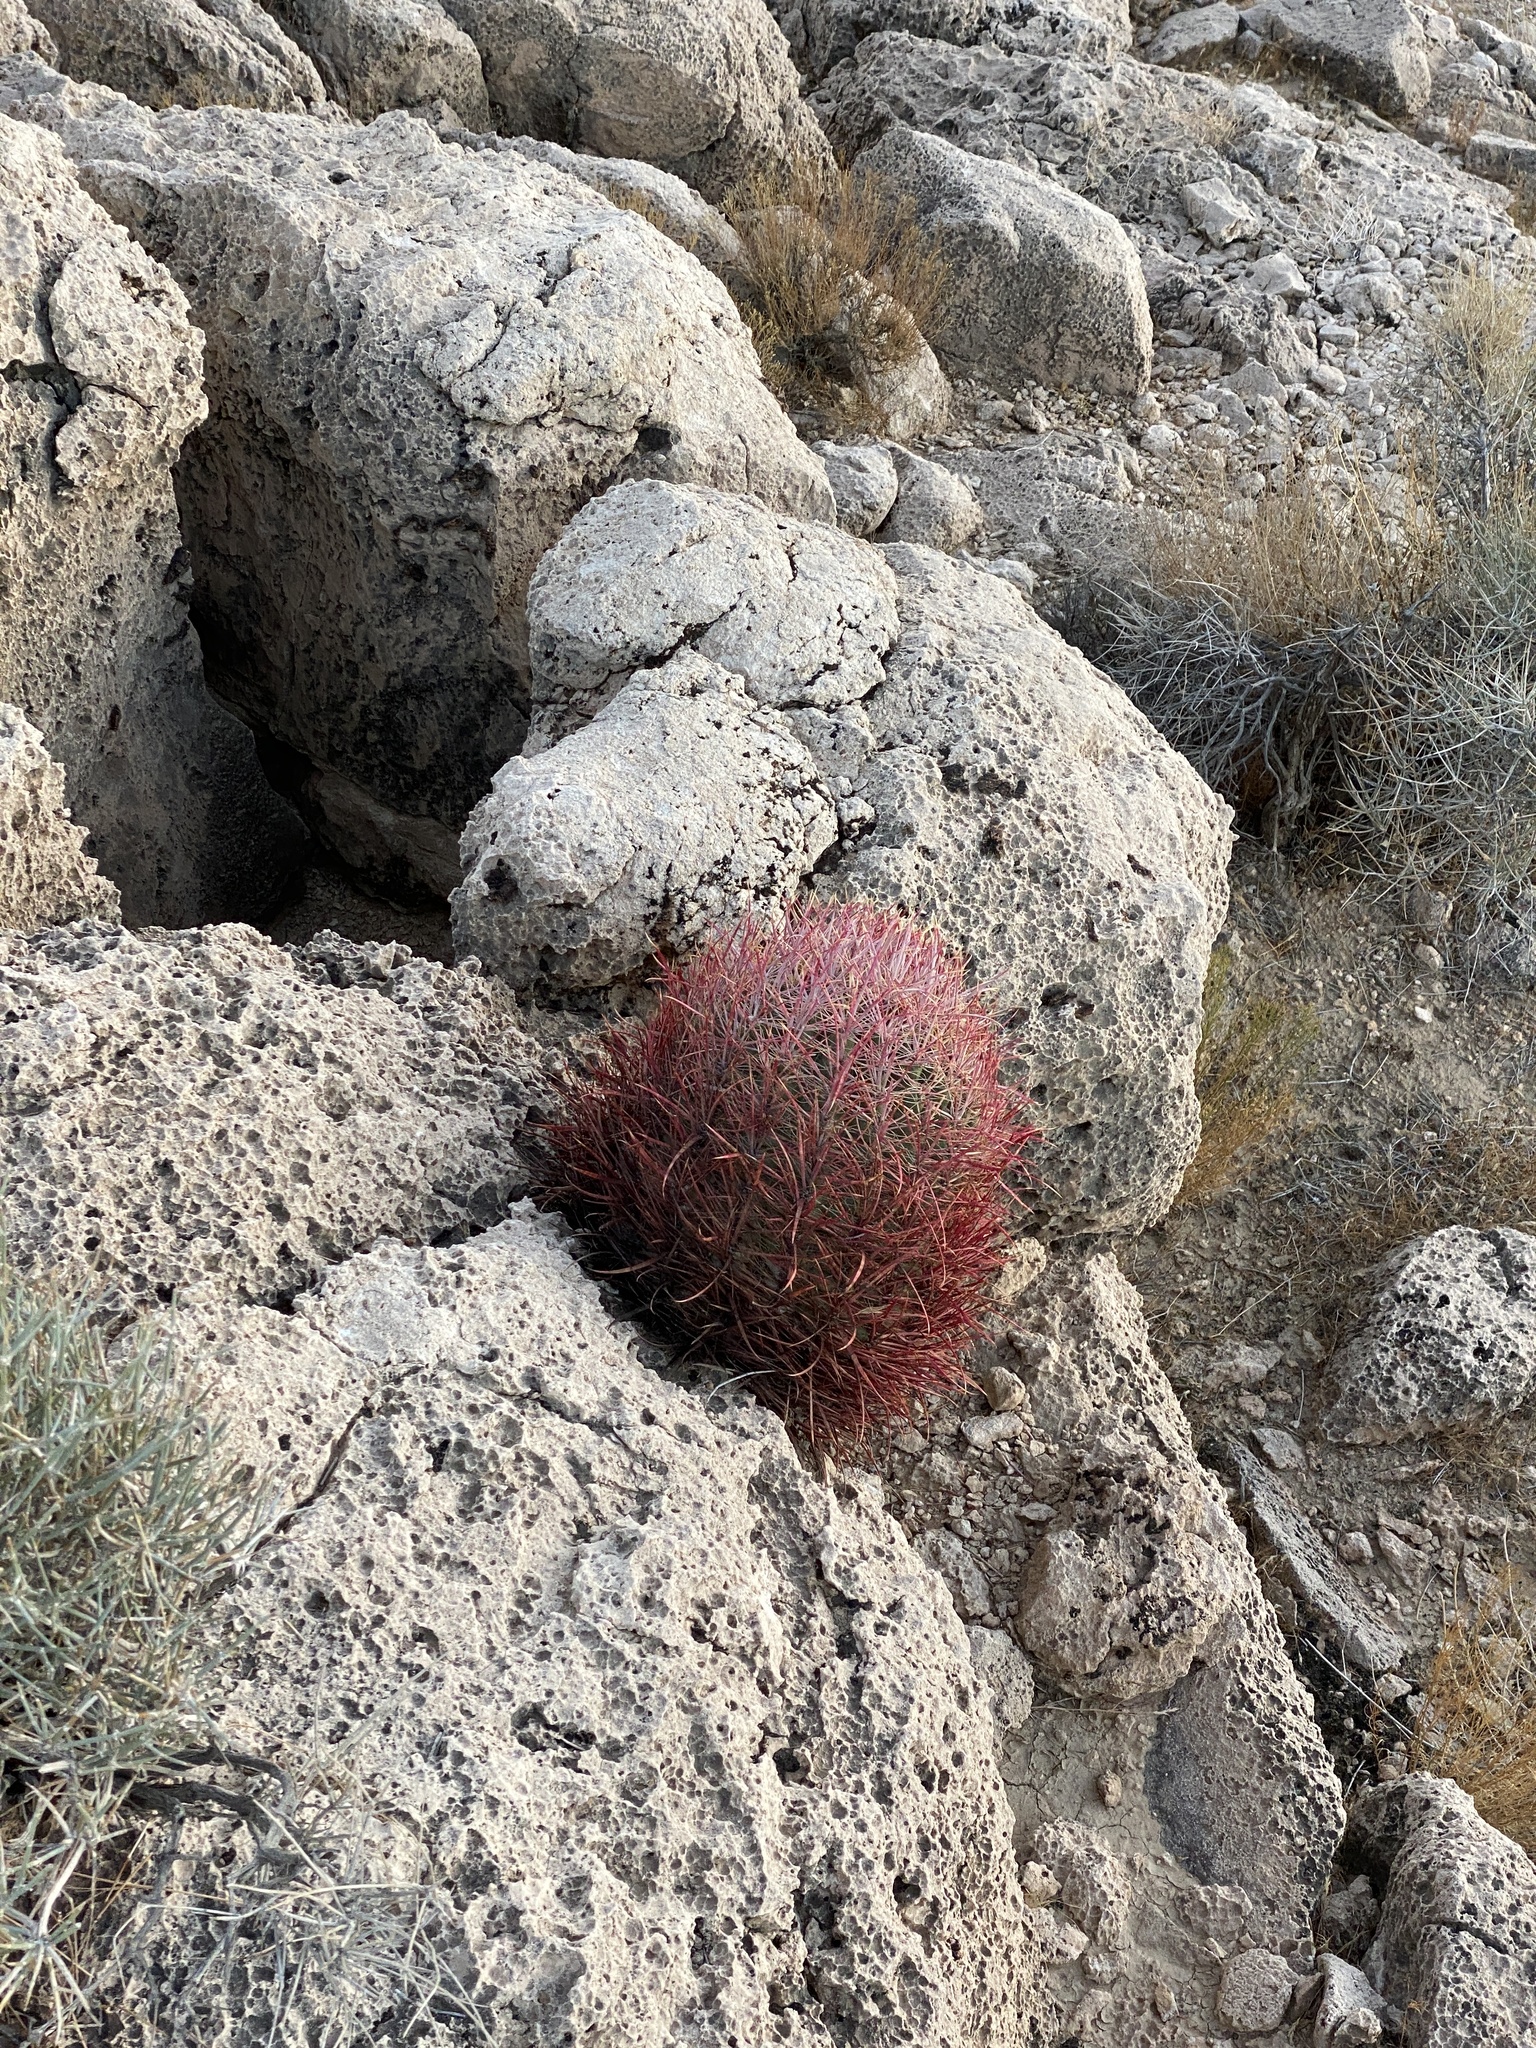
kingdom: Plantae
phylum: Tracheophyta
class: Magnoliopsida
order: Caryophyllales
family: Cactaceae
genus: Ferocactus
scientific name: Ferocactus cylindraceus
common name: California barrel cactus
